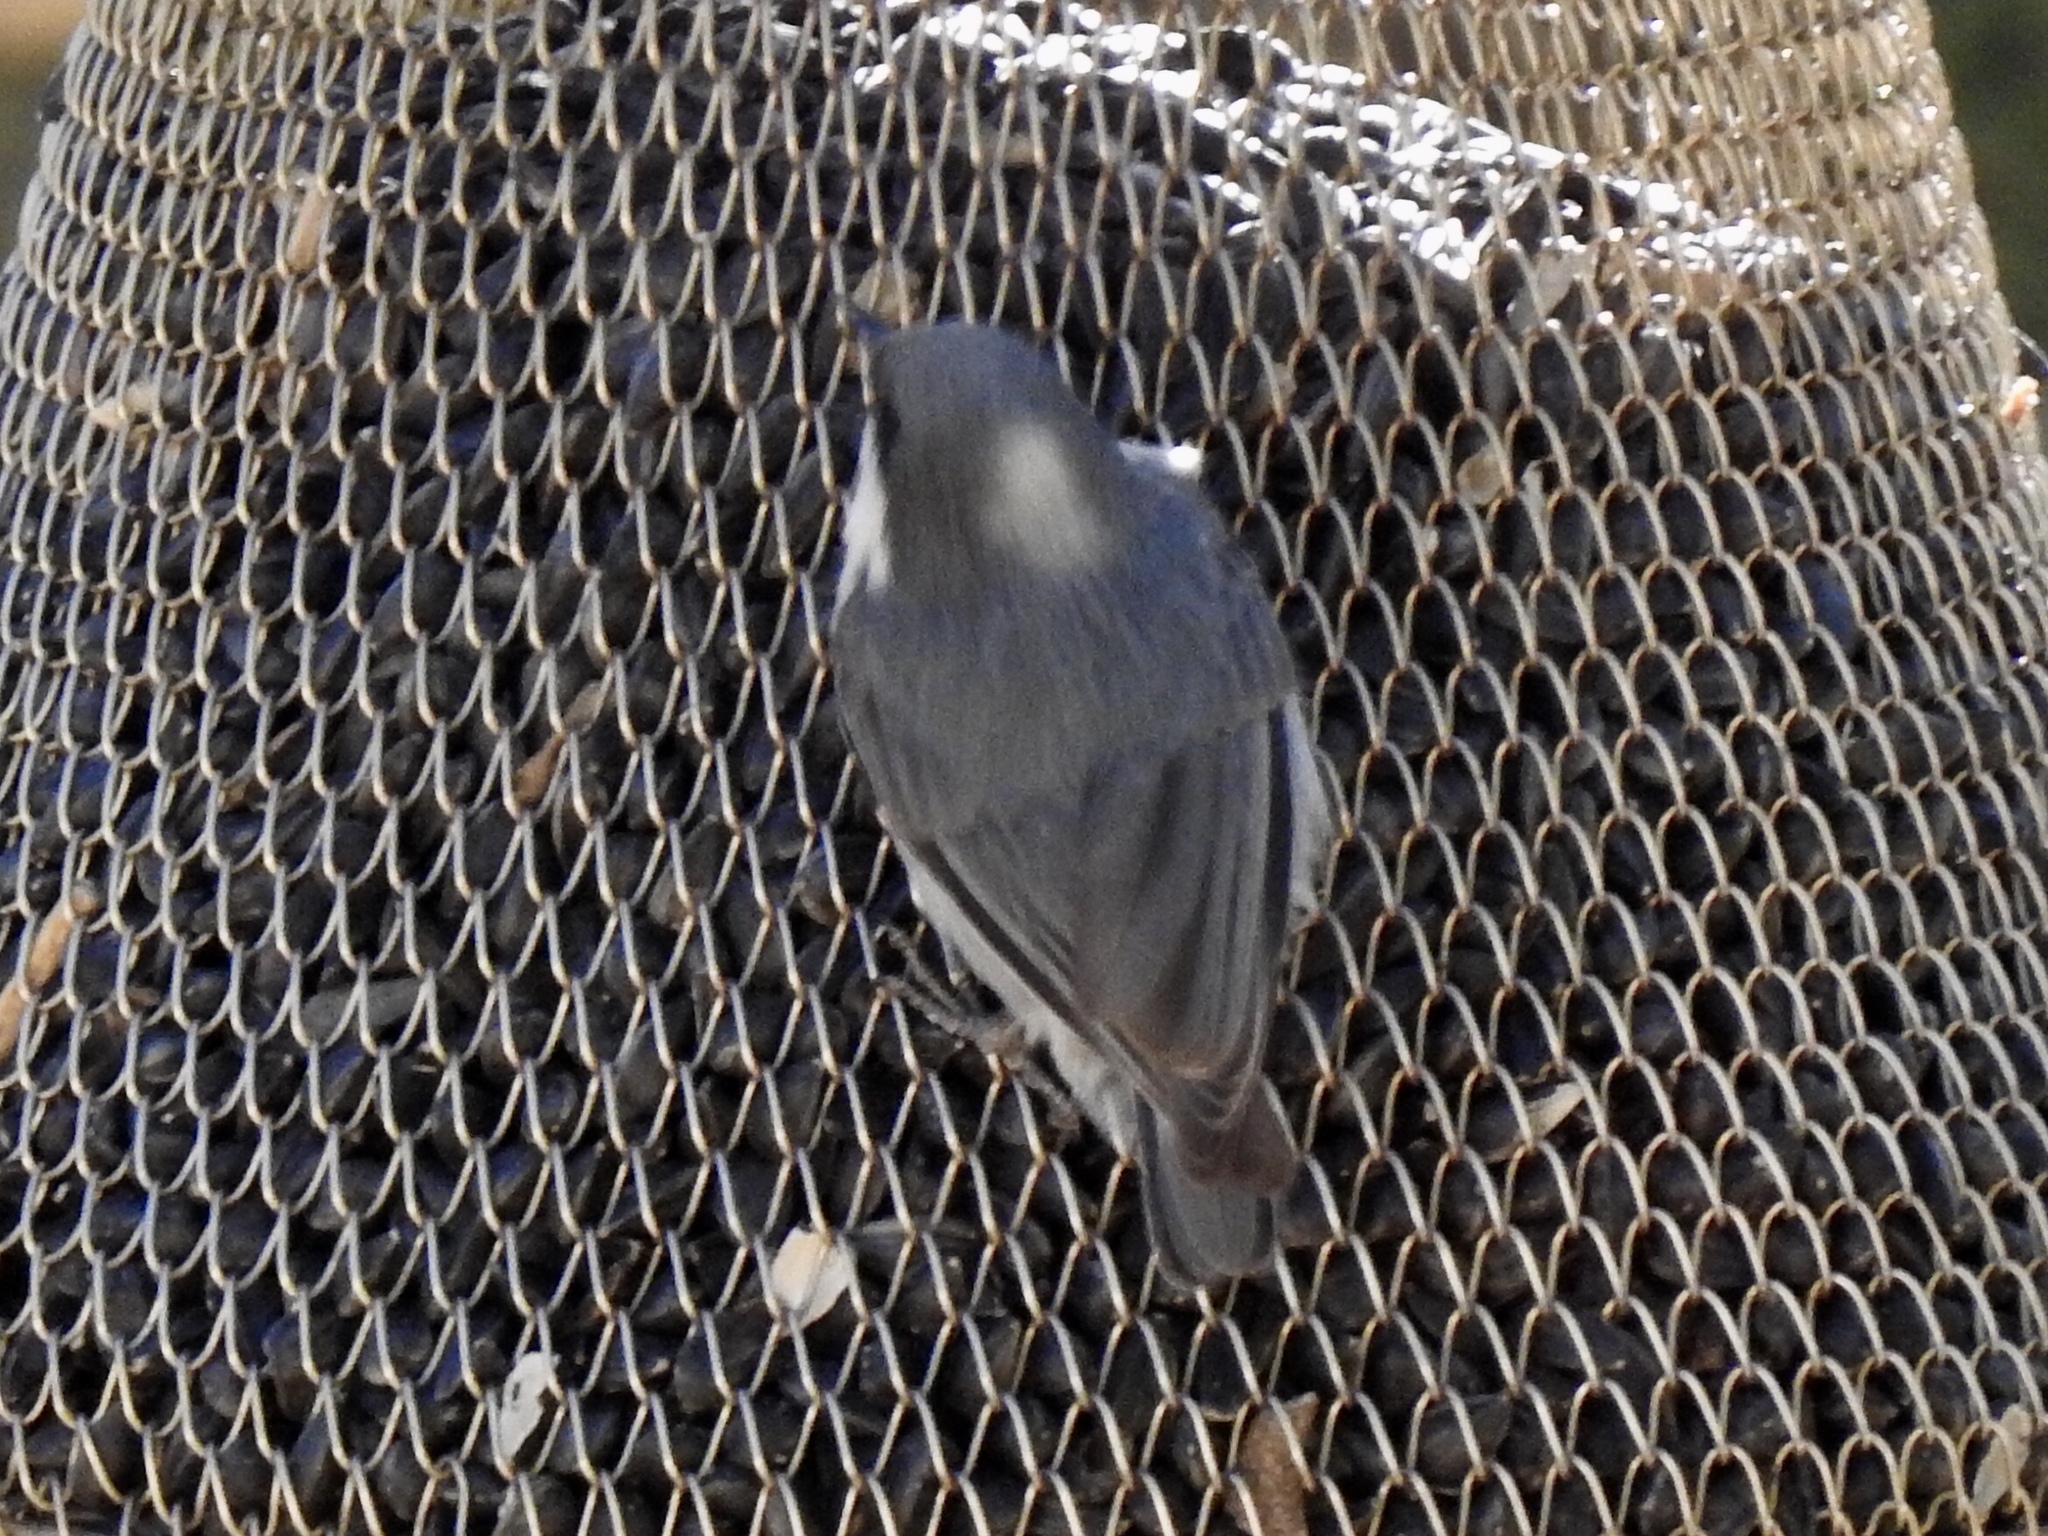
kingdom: Animalia
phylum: Chordata
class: Aves
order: Passeriformes
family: Sittidae
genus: Sitta
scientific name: Sitta pygmaea
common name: Pygmy nuthatch
